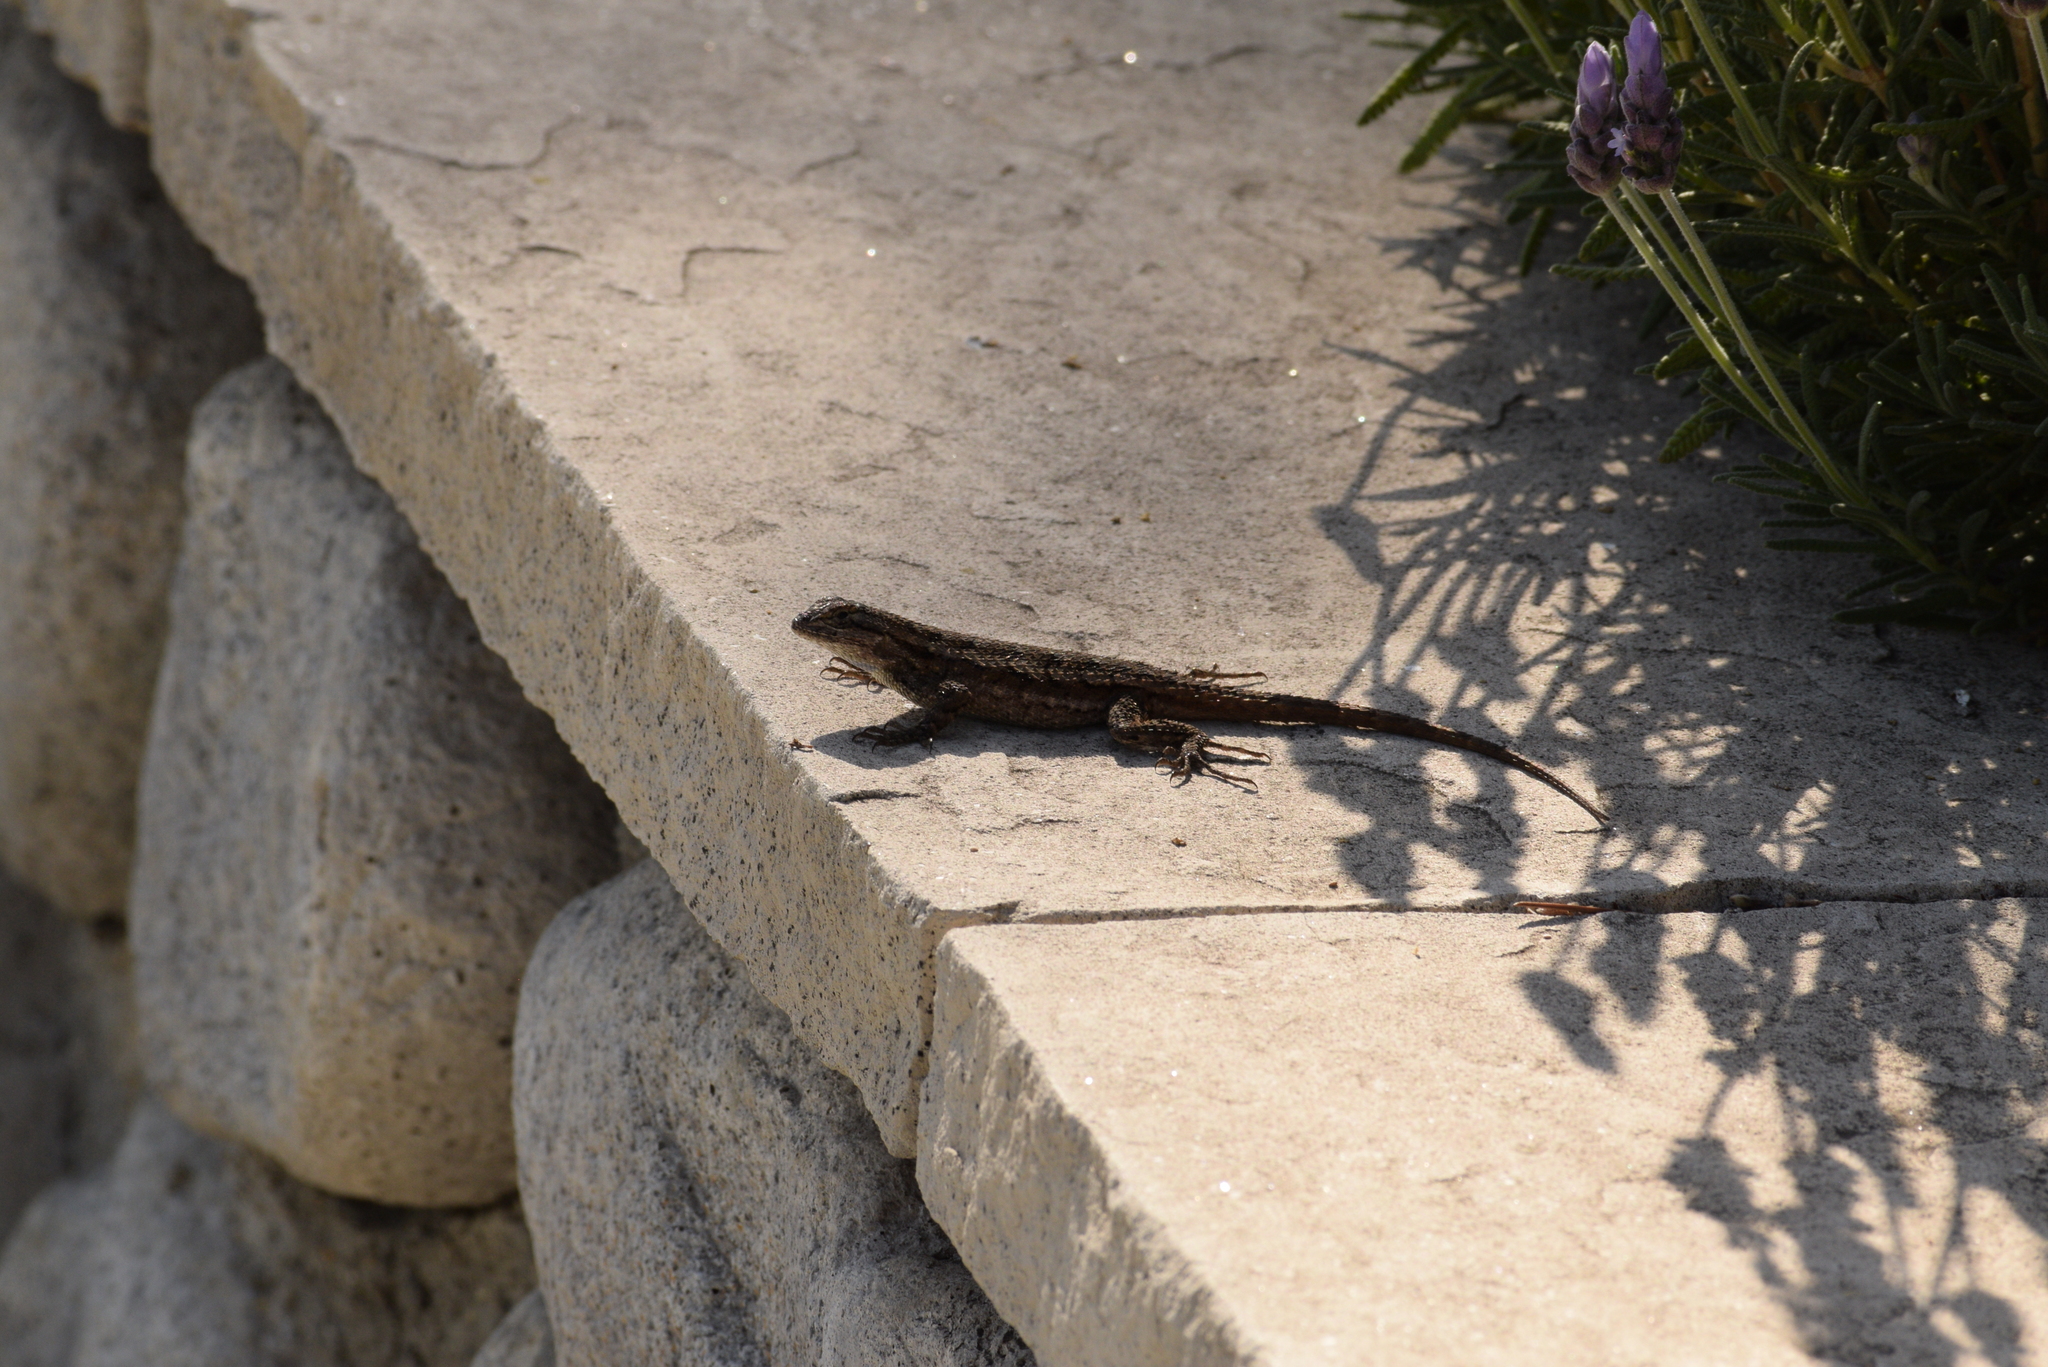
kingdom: Animalia
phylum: Chordata
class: Squamata
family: Phrynosomatidae
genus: Sceloporus
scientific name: Sceloporus occidentalis
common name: Western fence lizard
